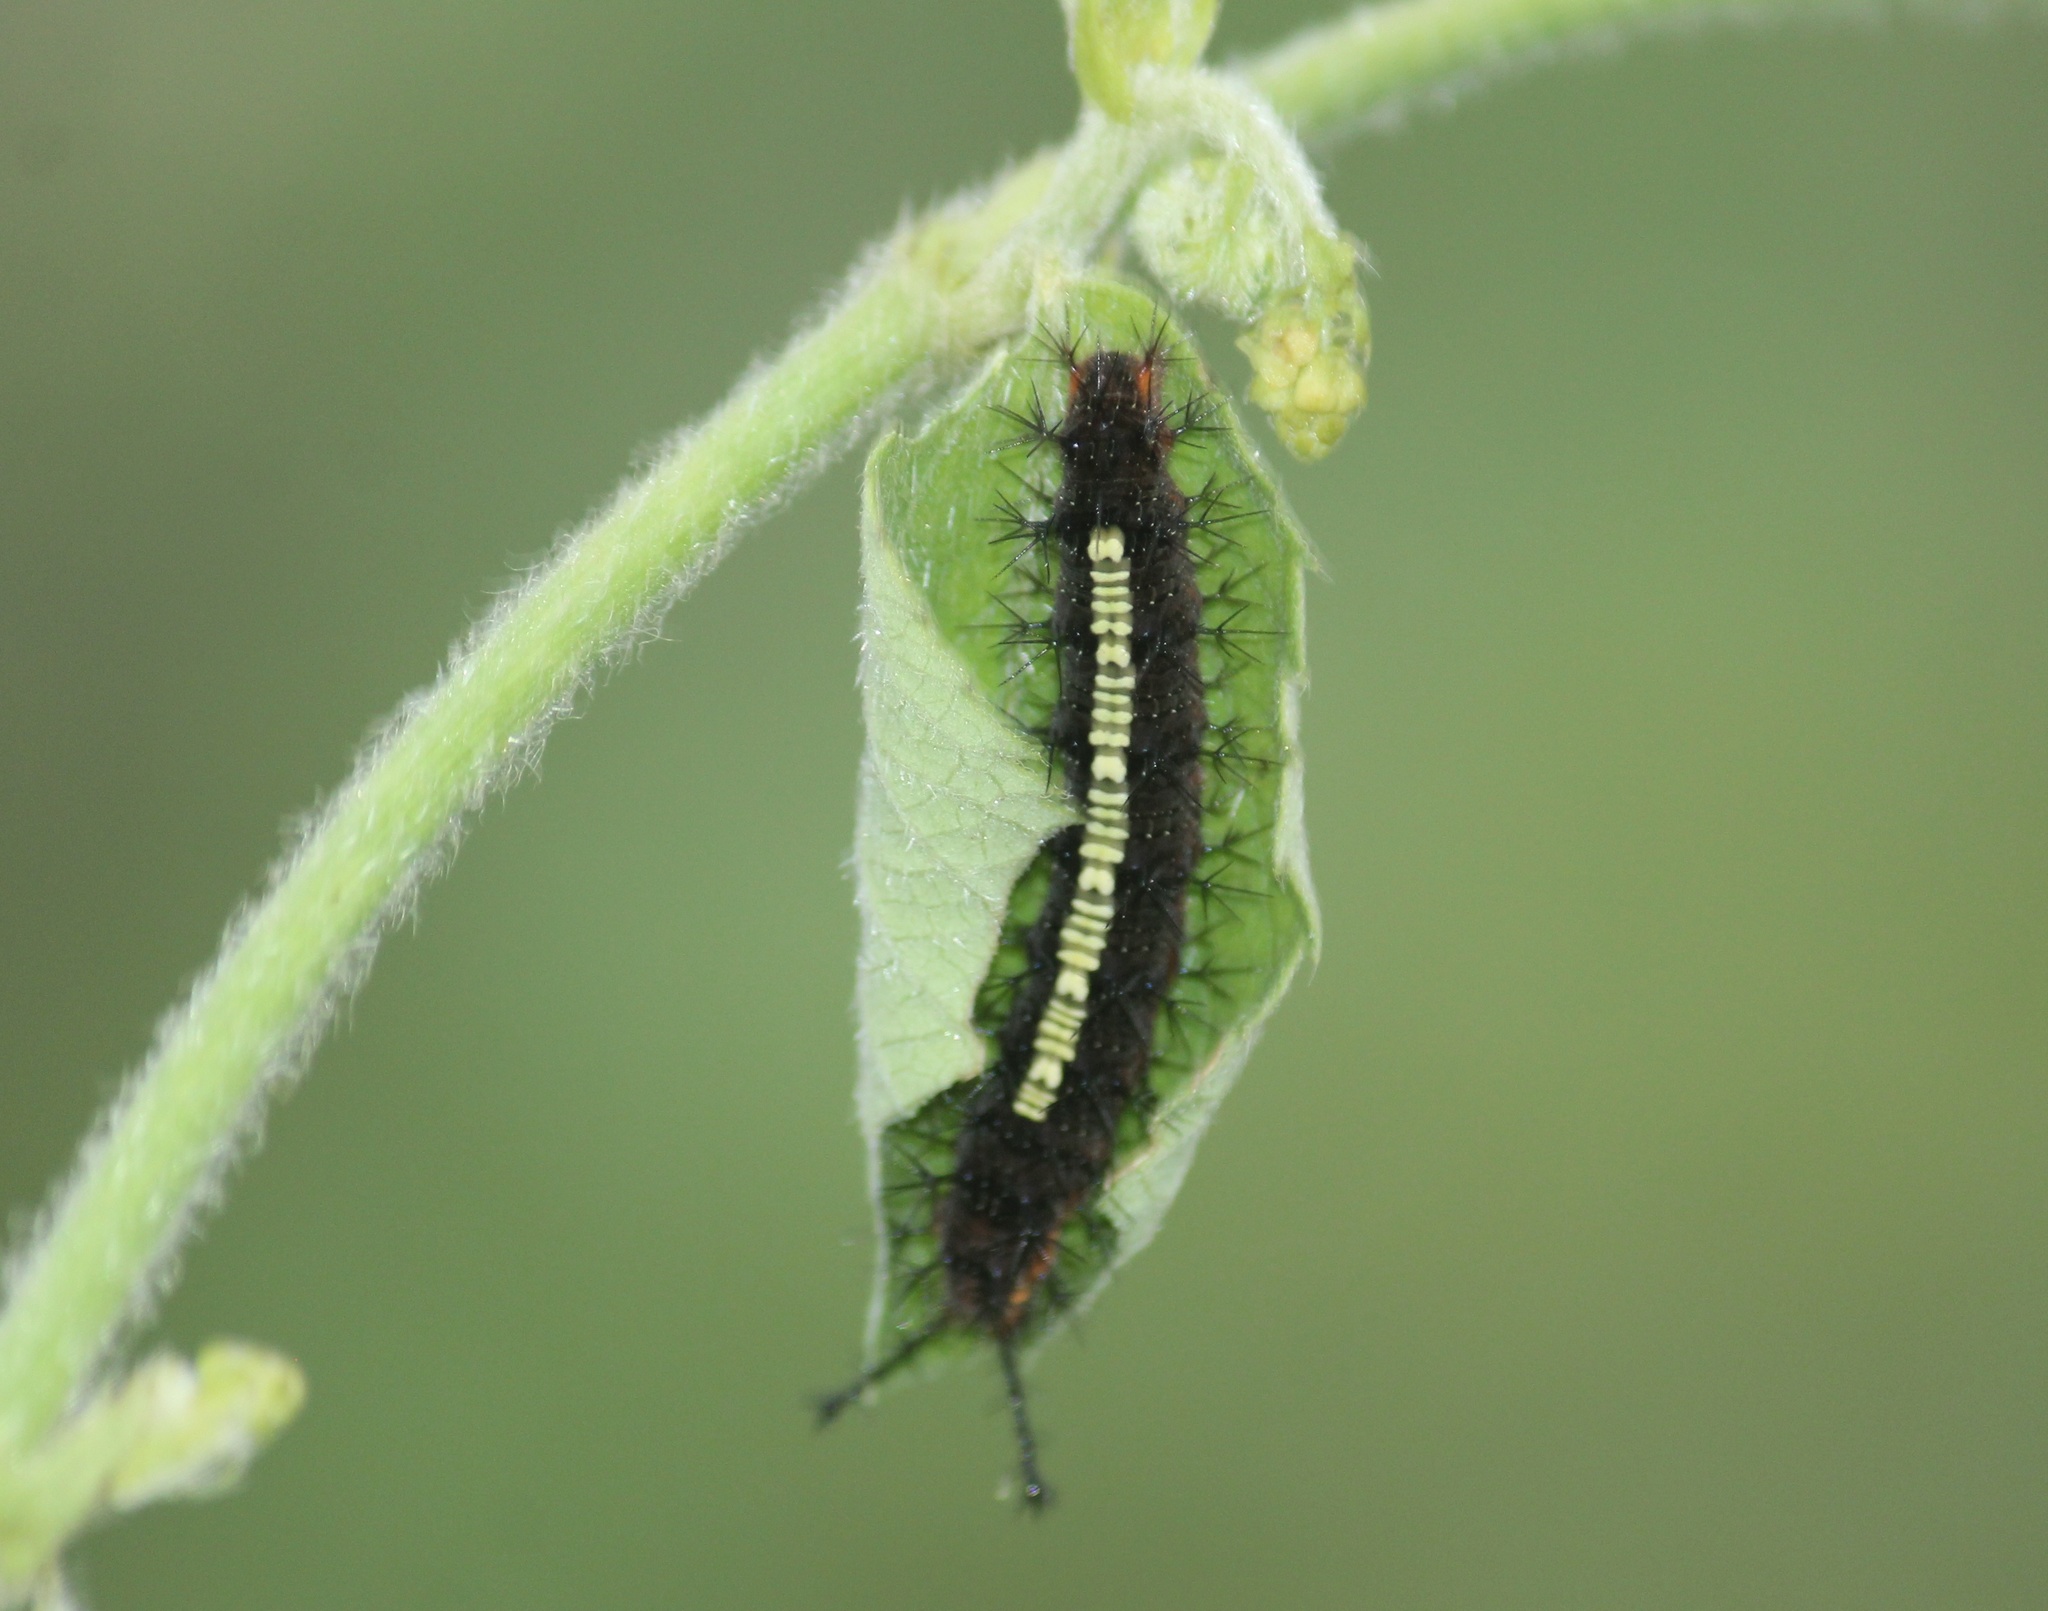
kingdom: Animalia
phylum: Arthropoda
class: Insecta
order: Lepidoptera
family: Nymphalidae
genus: Ariadne
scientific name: Ariadne ariadne
